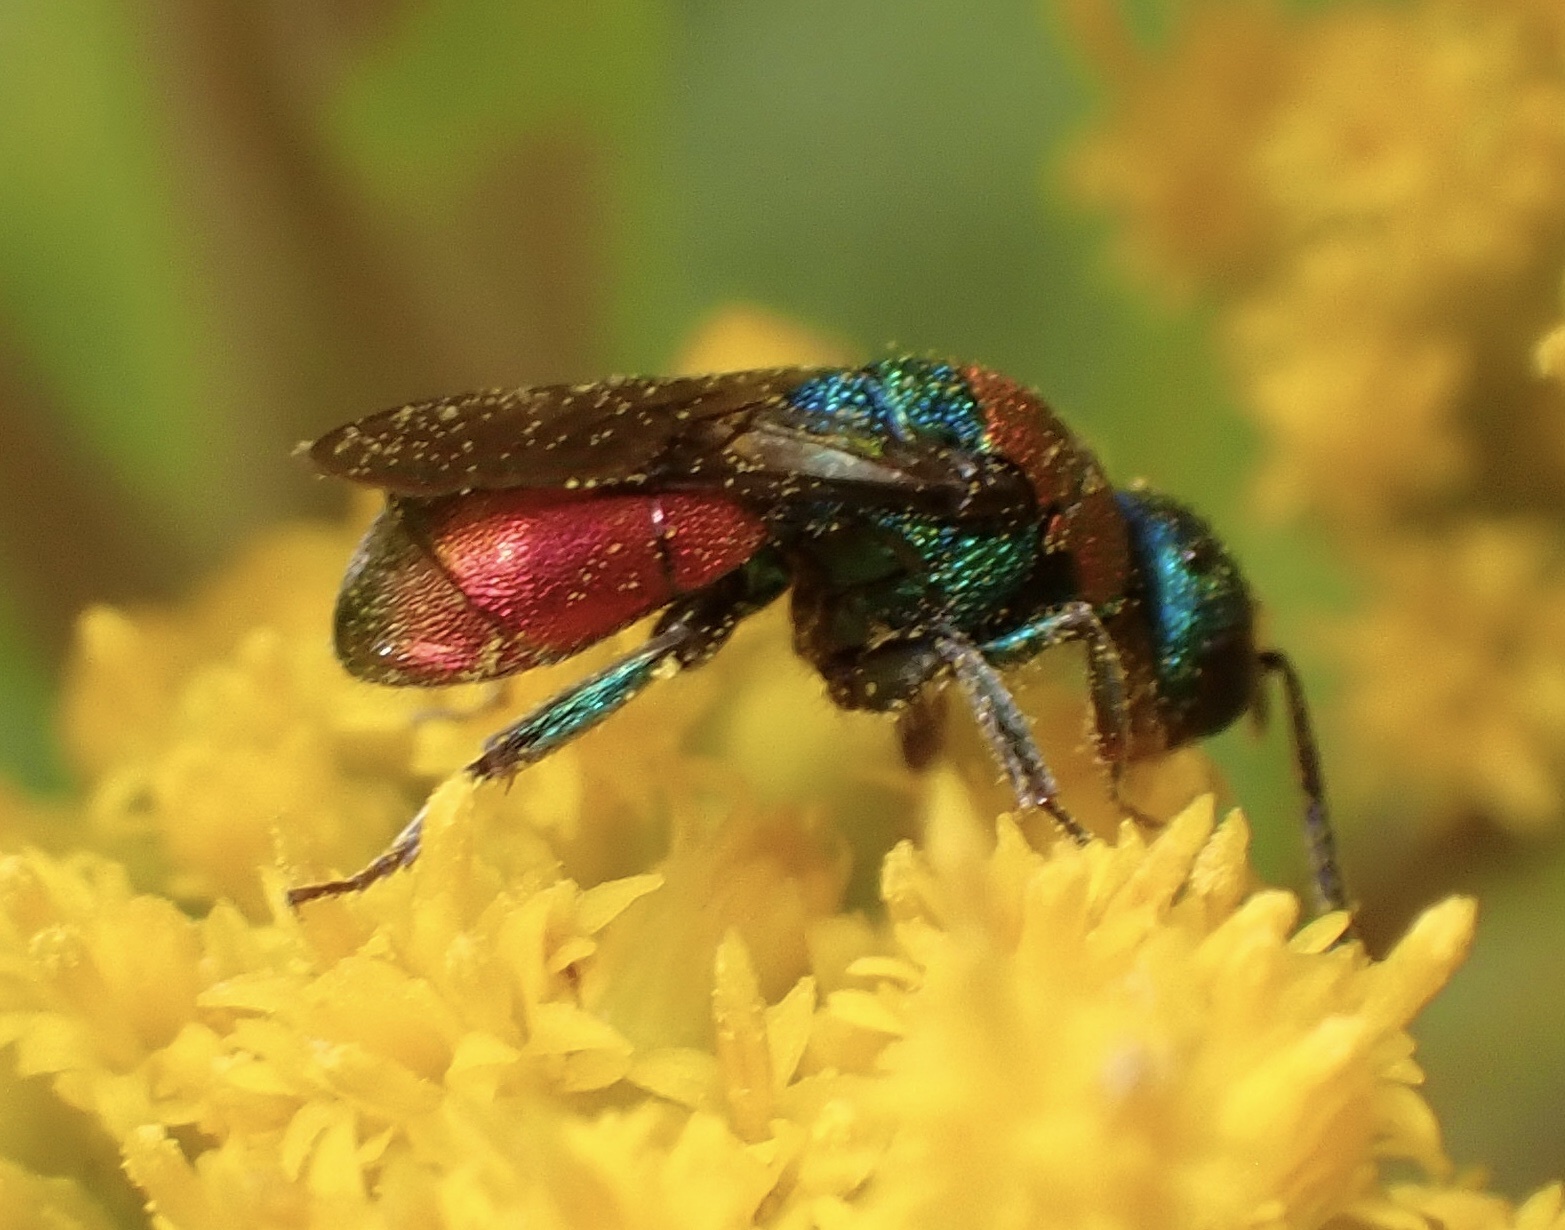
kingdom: Animalia
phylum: Arthropoda
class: Insecta
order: Hymenoptera
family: Chrysididae
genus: Hedychrum
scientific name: Hedychrum
